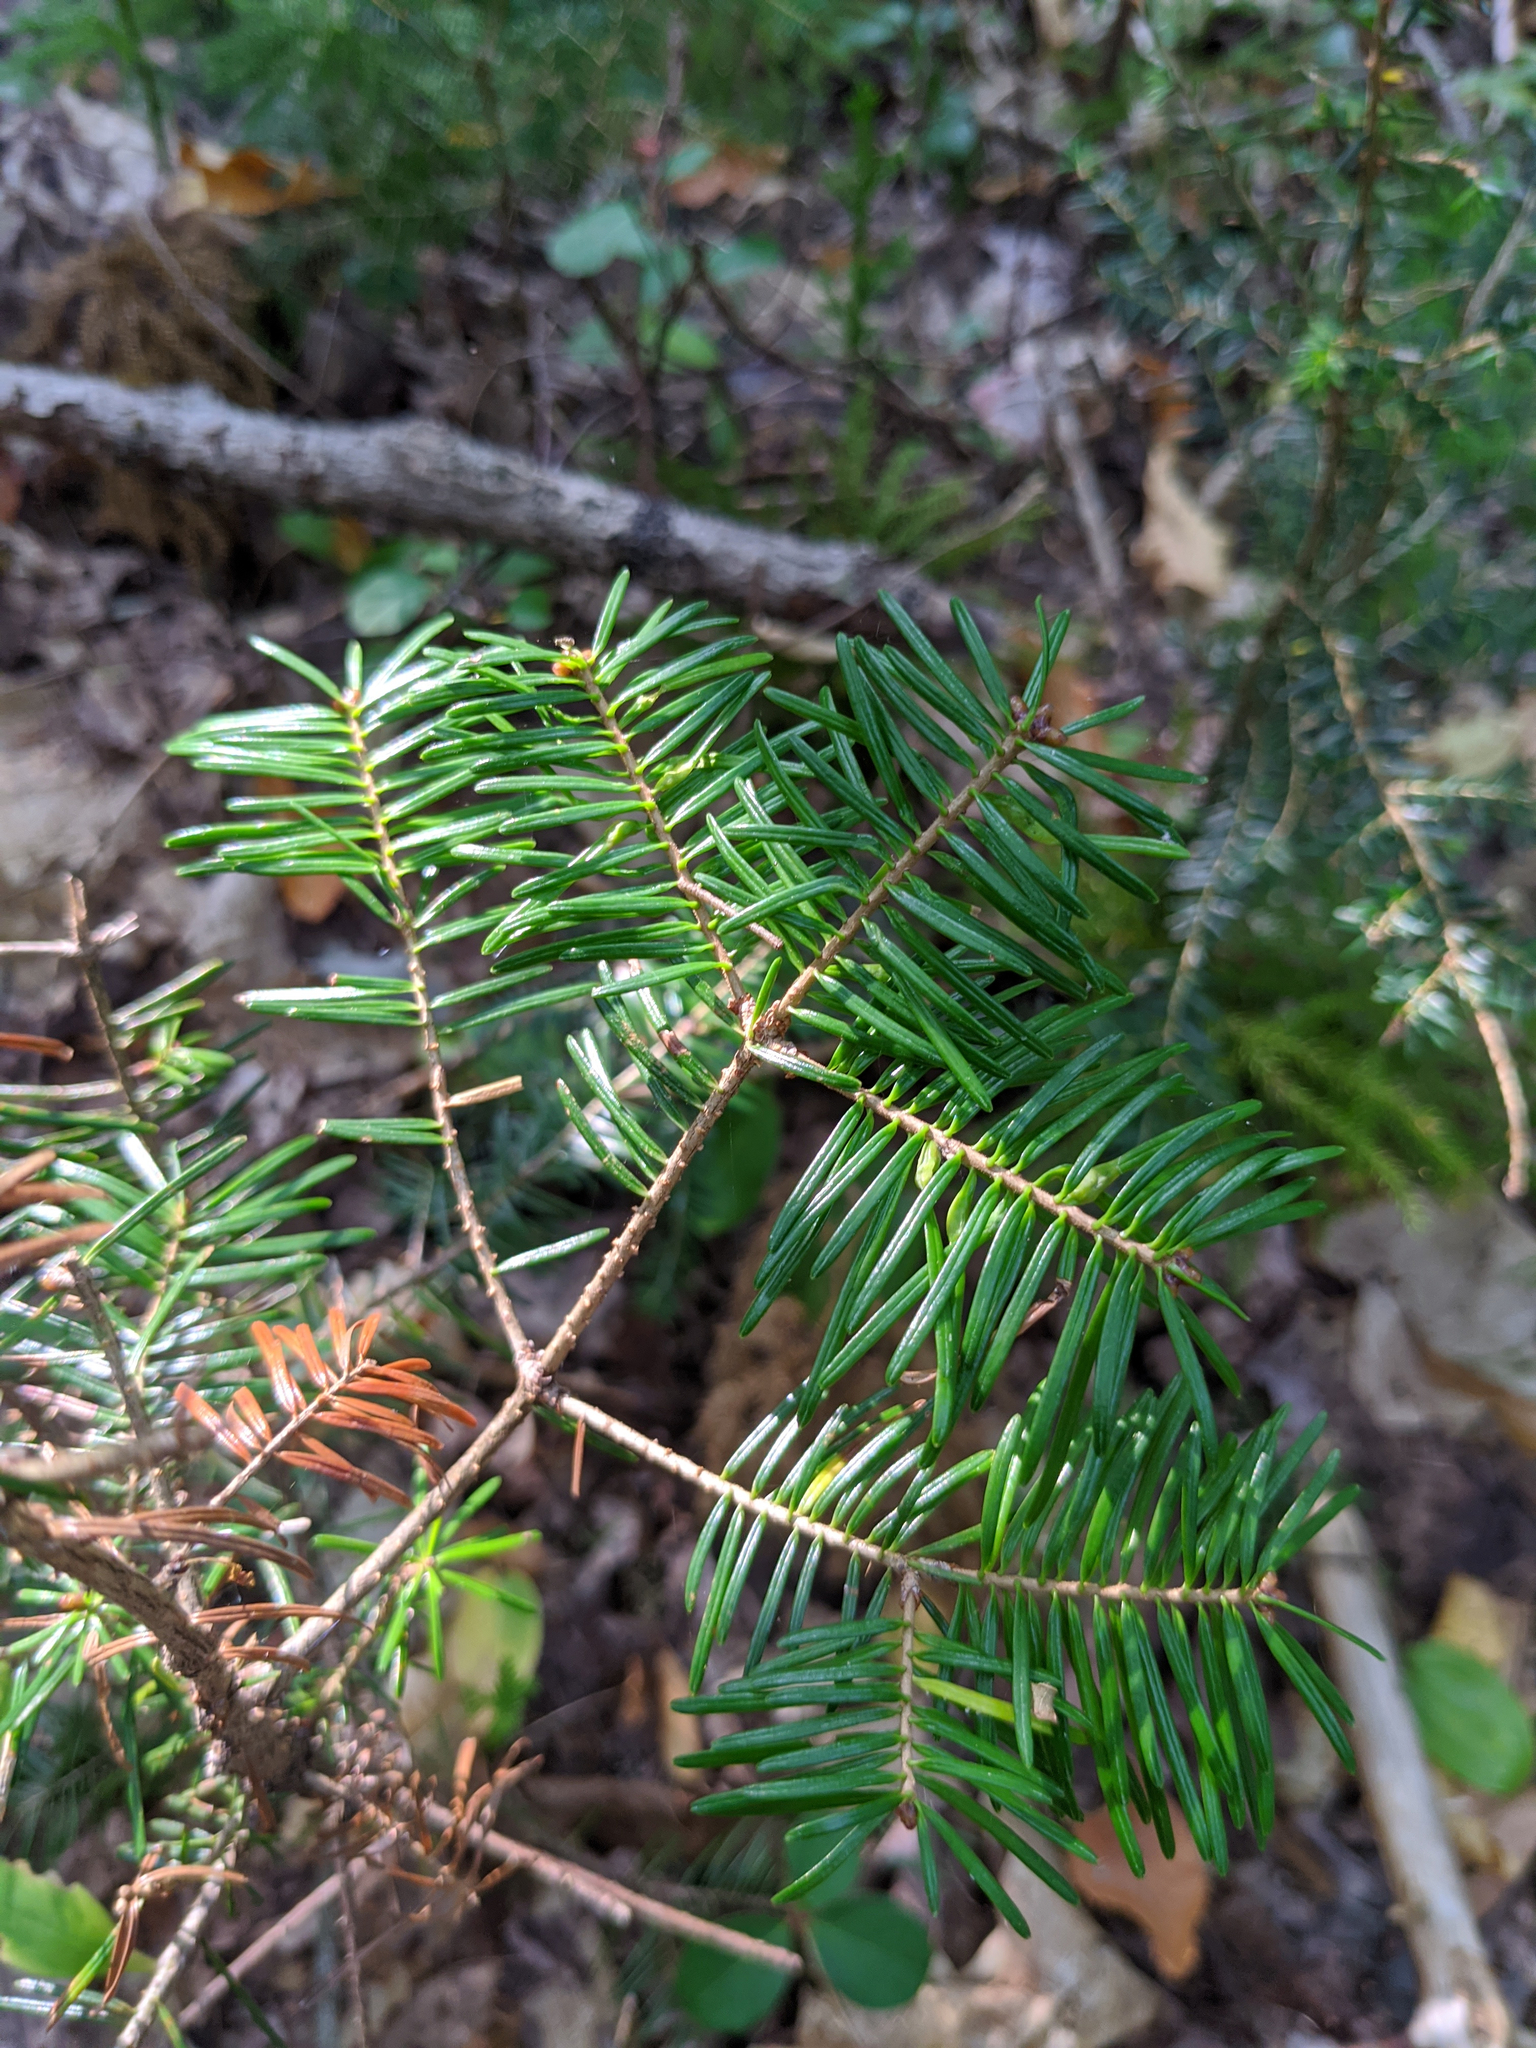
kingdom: Plantae
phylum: Tracheophyta
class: Pinopsida
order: Pinales
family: Pinaceae
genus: Abies
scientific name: Abies balsamea
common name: Balsam fir
